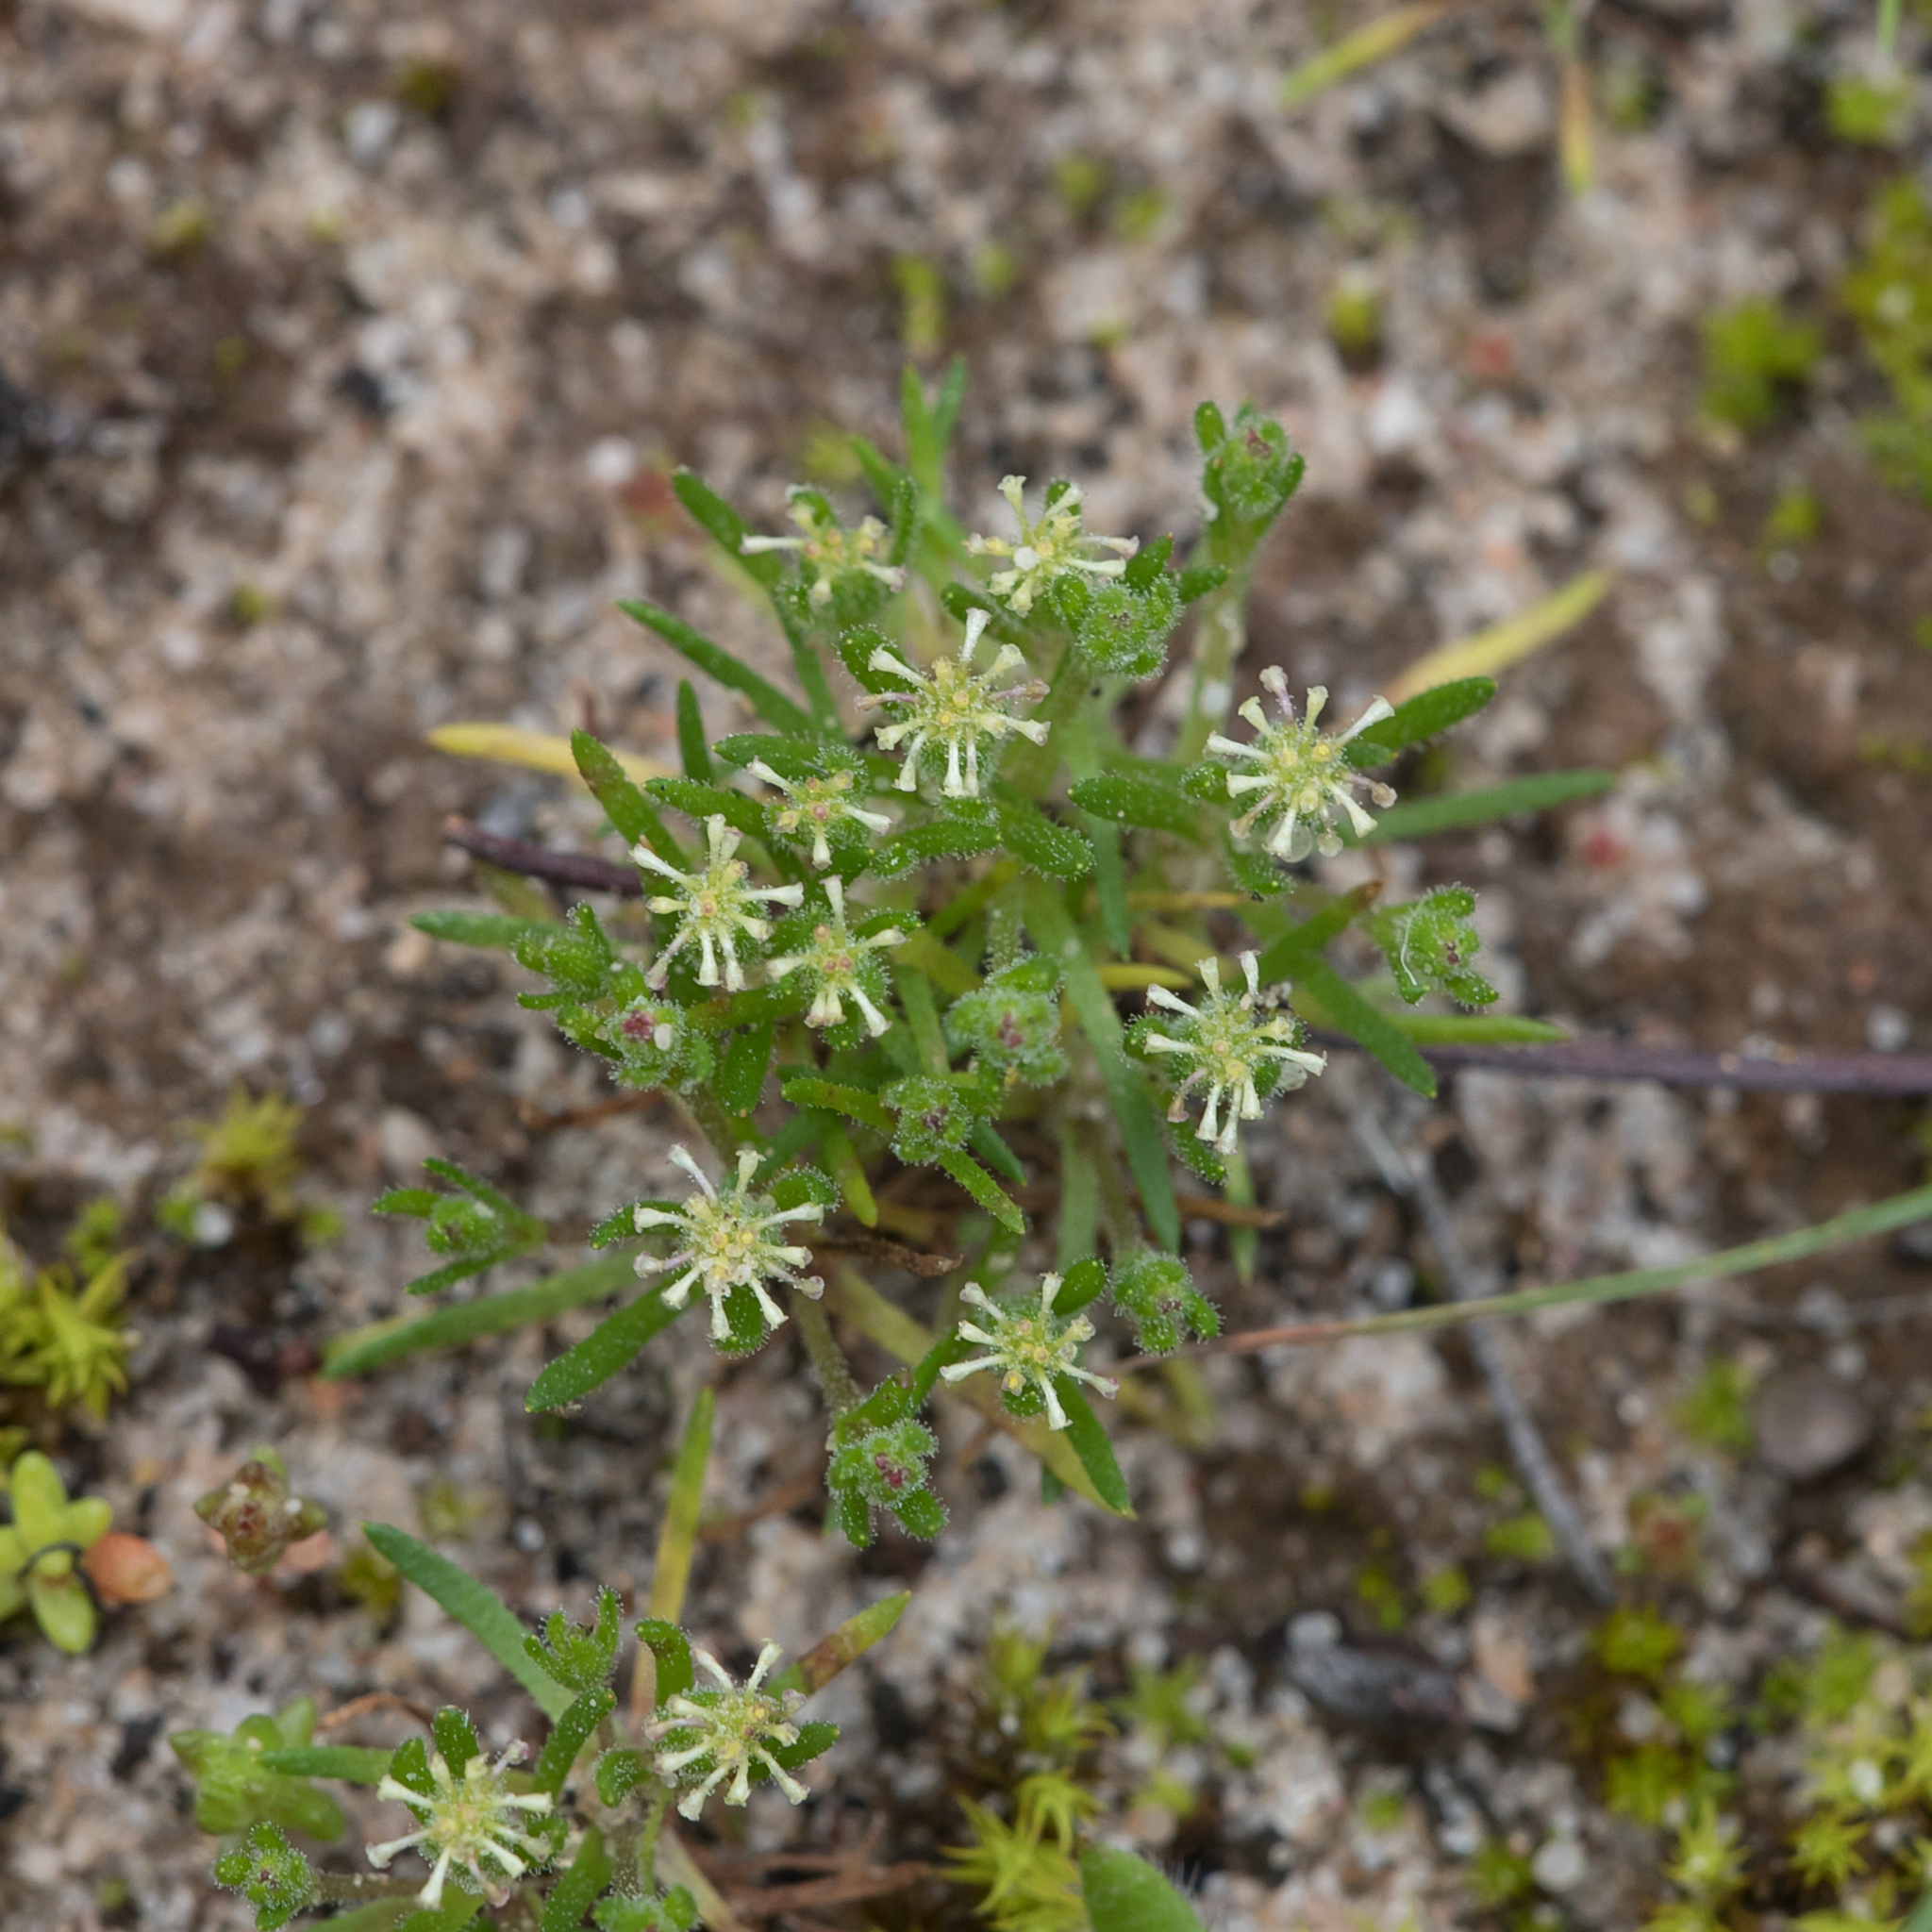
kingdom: Plantae
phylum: Tracheophyta
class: Magnoliopsida
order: Asterales
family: Asteraceae
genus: Millotia
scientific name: Millotia muelleri
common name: Common bow-flower
